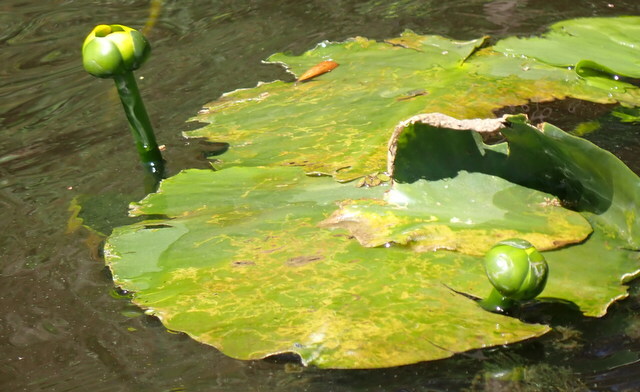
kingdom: Plantae
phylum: Tracheophyta
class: Magnoliopsida
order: Nymphaeales
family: Nymphaeaceae
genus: Nuphar
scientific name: Nuphar advena
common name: Spatter-dock
